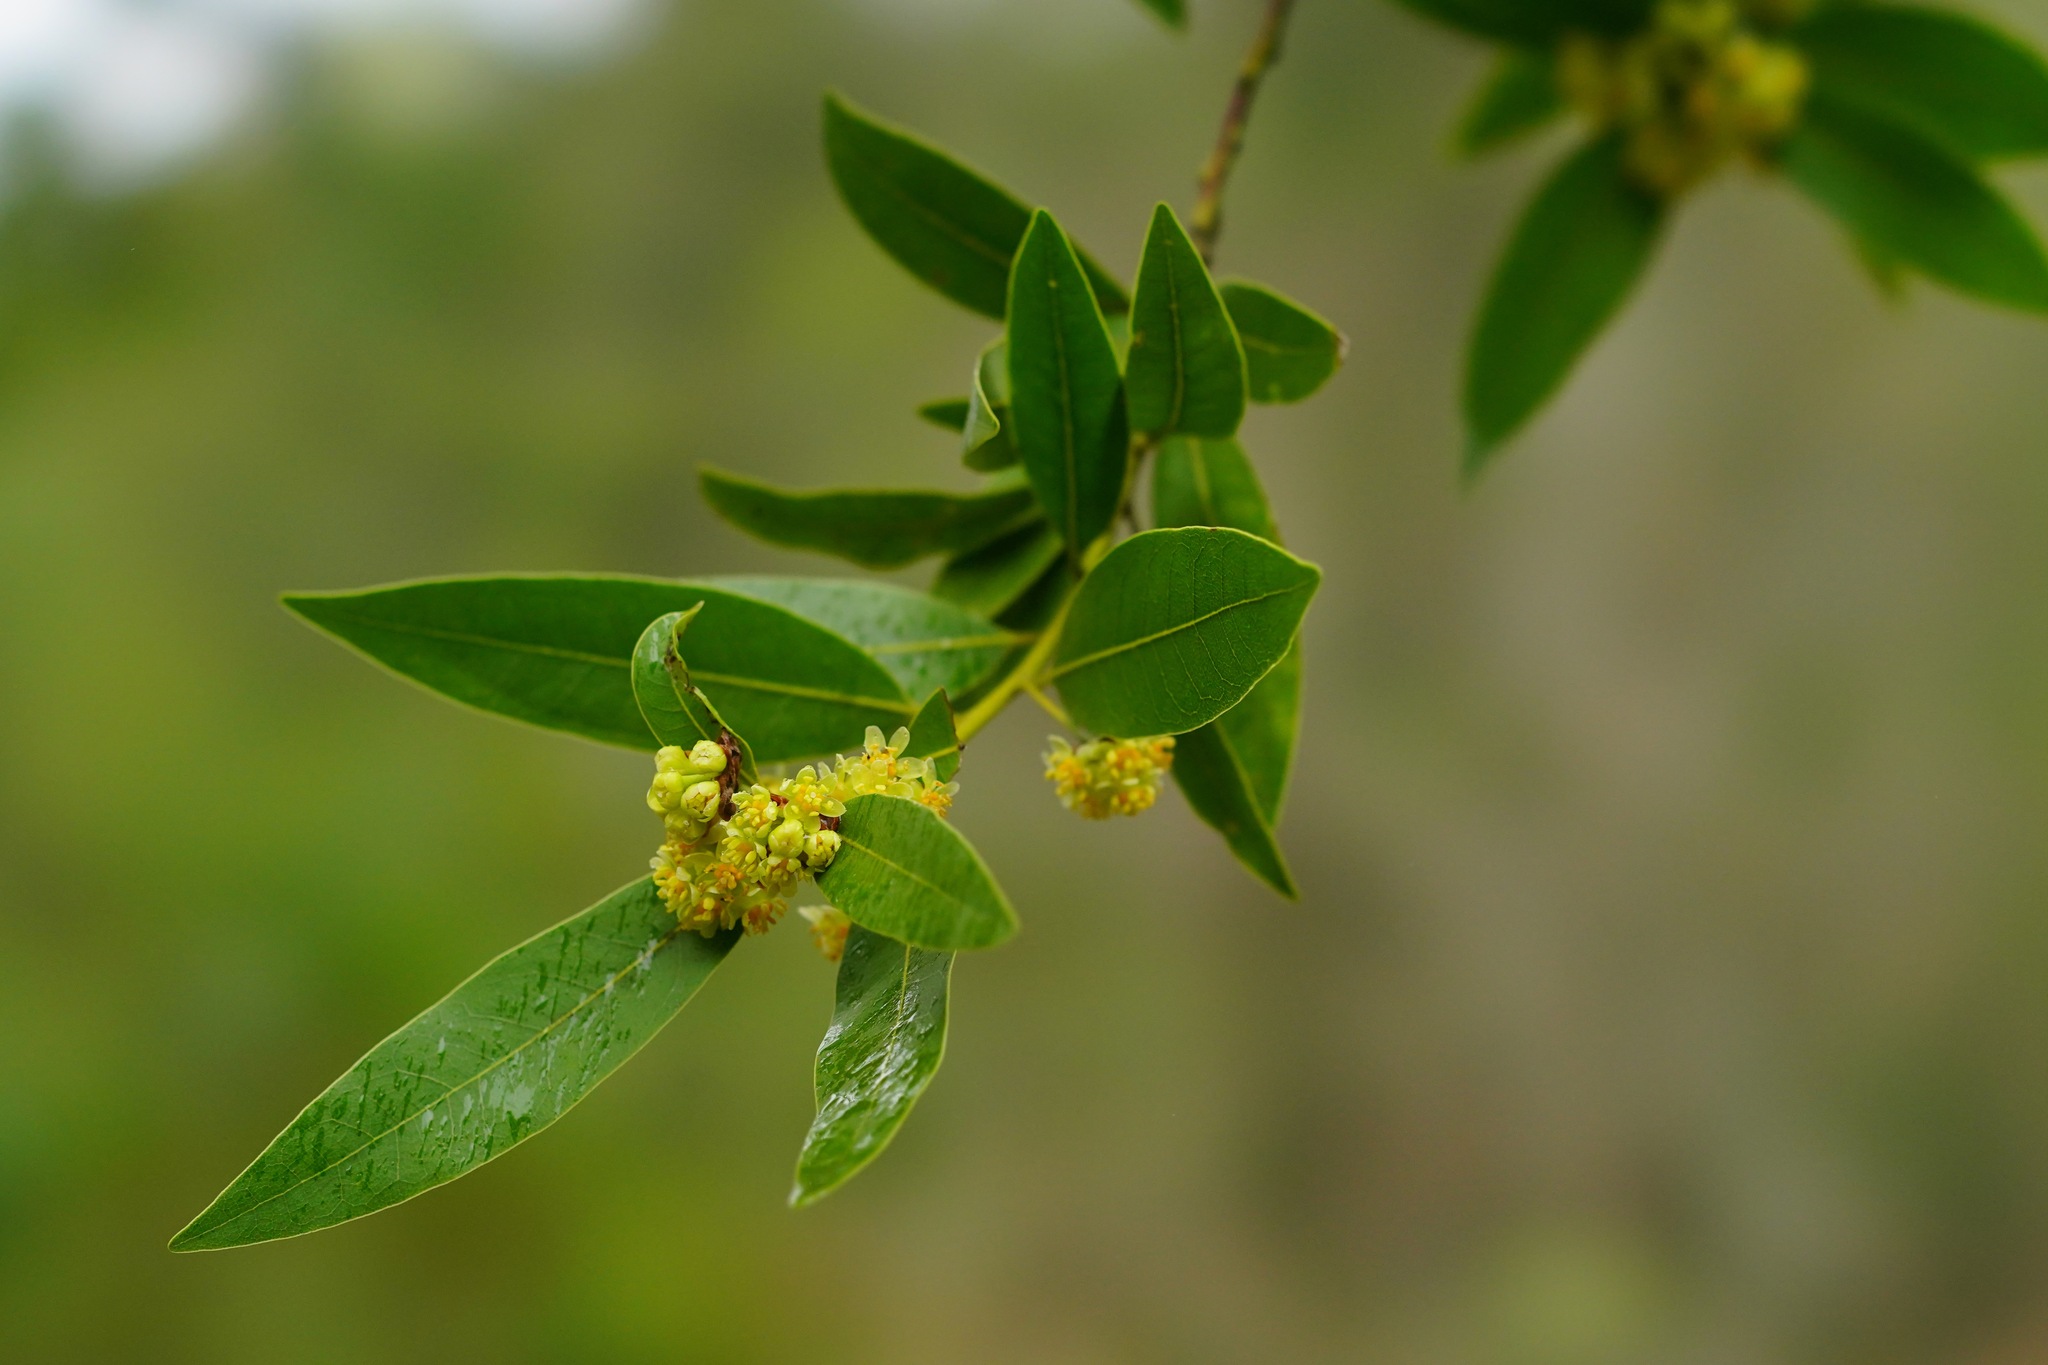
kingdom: Plantae
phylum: Tracheophyta
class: Magnoliopsida
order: Laurales
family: Lauraceae
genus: Umbellularia
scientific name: Umbellularia californica
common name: California bay
